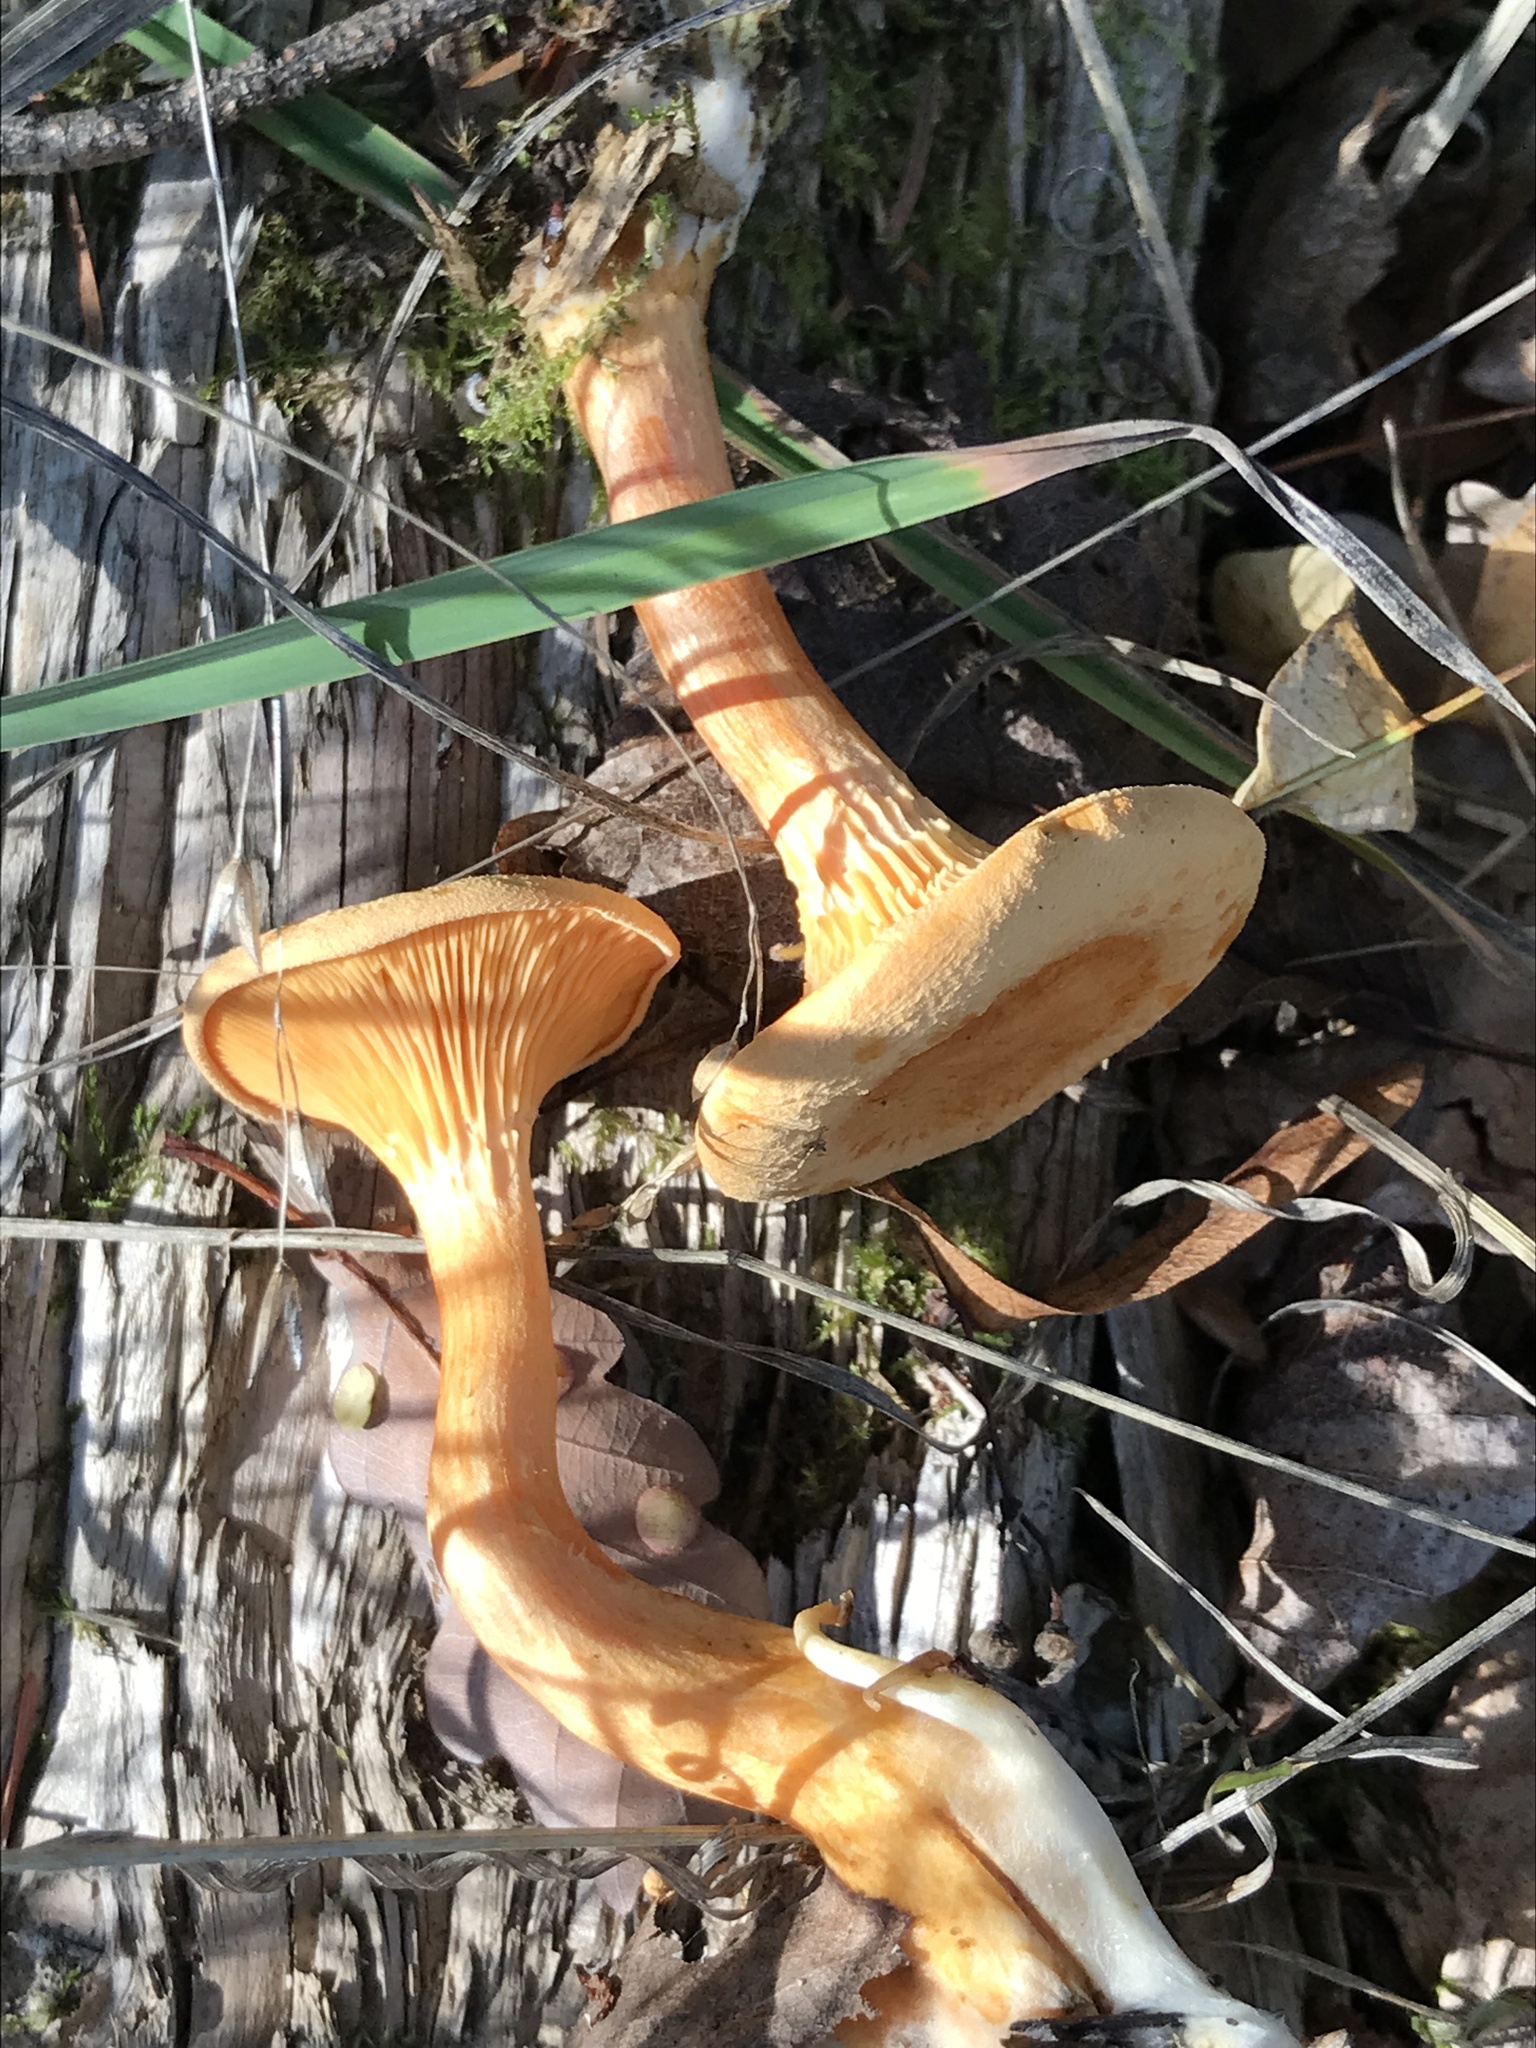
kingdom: Fungi
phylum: Basidiomycota
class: Agaricomycetes
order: Boletales
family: Hygrophoropsidaceae
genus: Hygrophoropsis
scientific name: Hygrophoropsis aurantiaca
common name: False chanterelle
